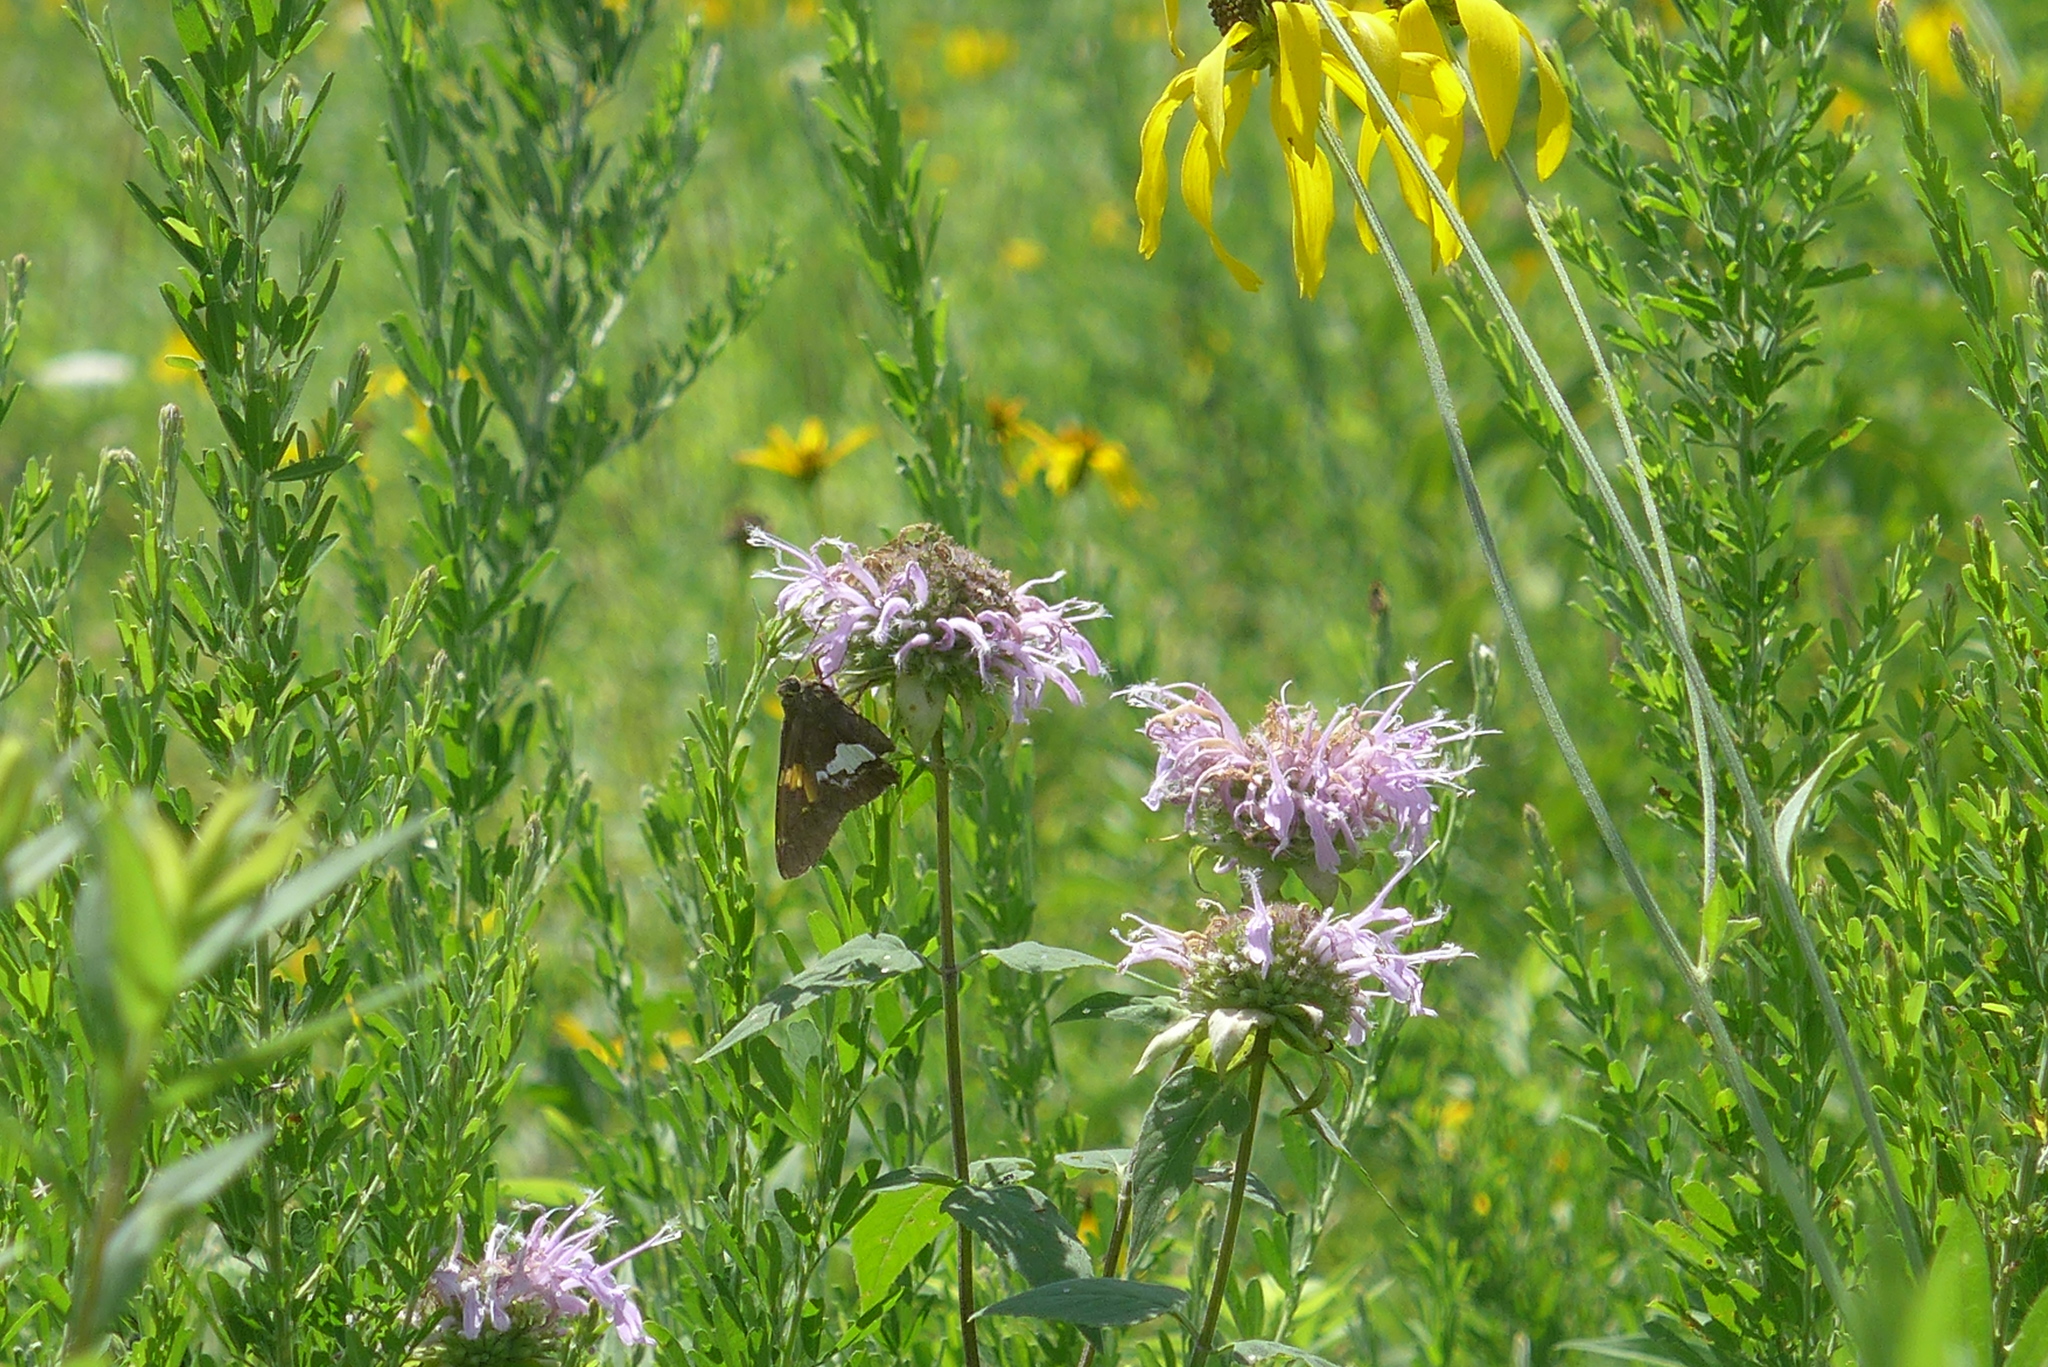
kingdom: Animalia
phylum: Arthropoda
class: Insecta
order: Lepidoptera
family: Hesperiidae
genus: Epargyreus
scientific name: Epargyreus clarus
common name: Silver-spotted skipper
